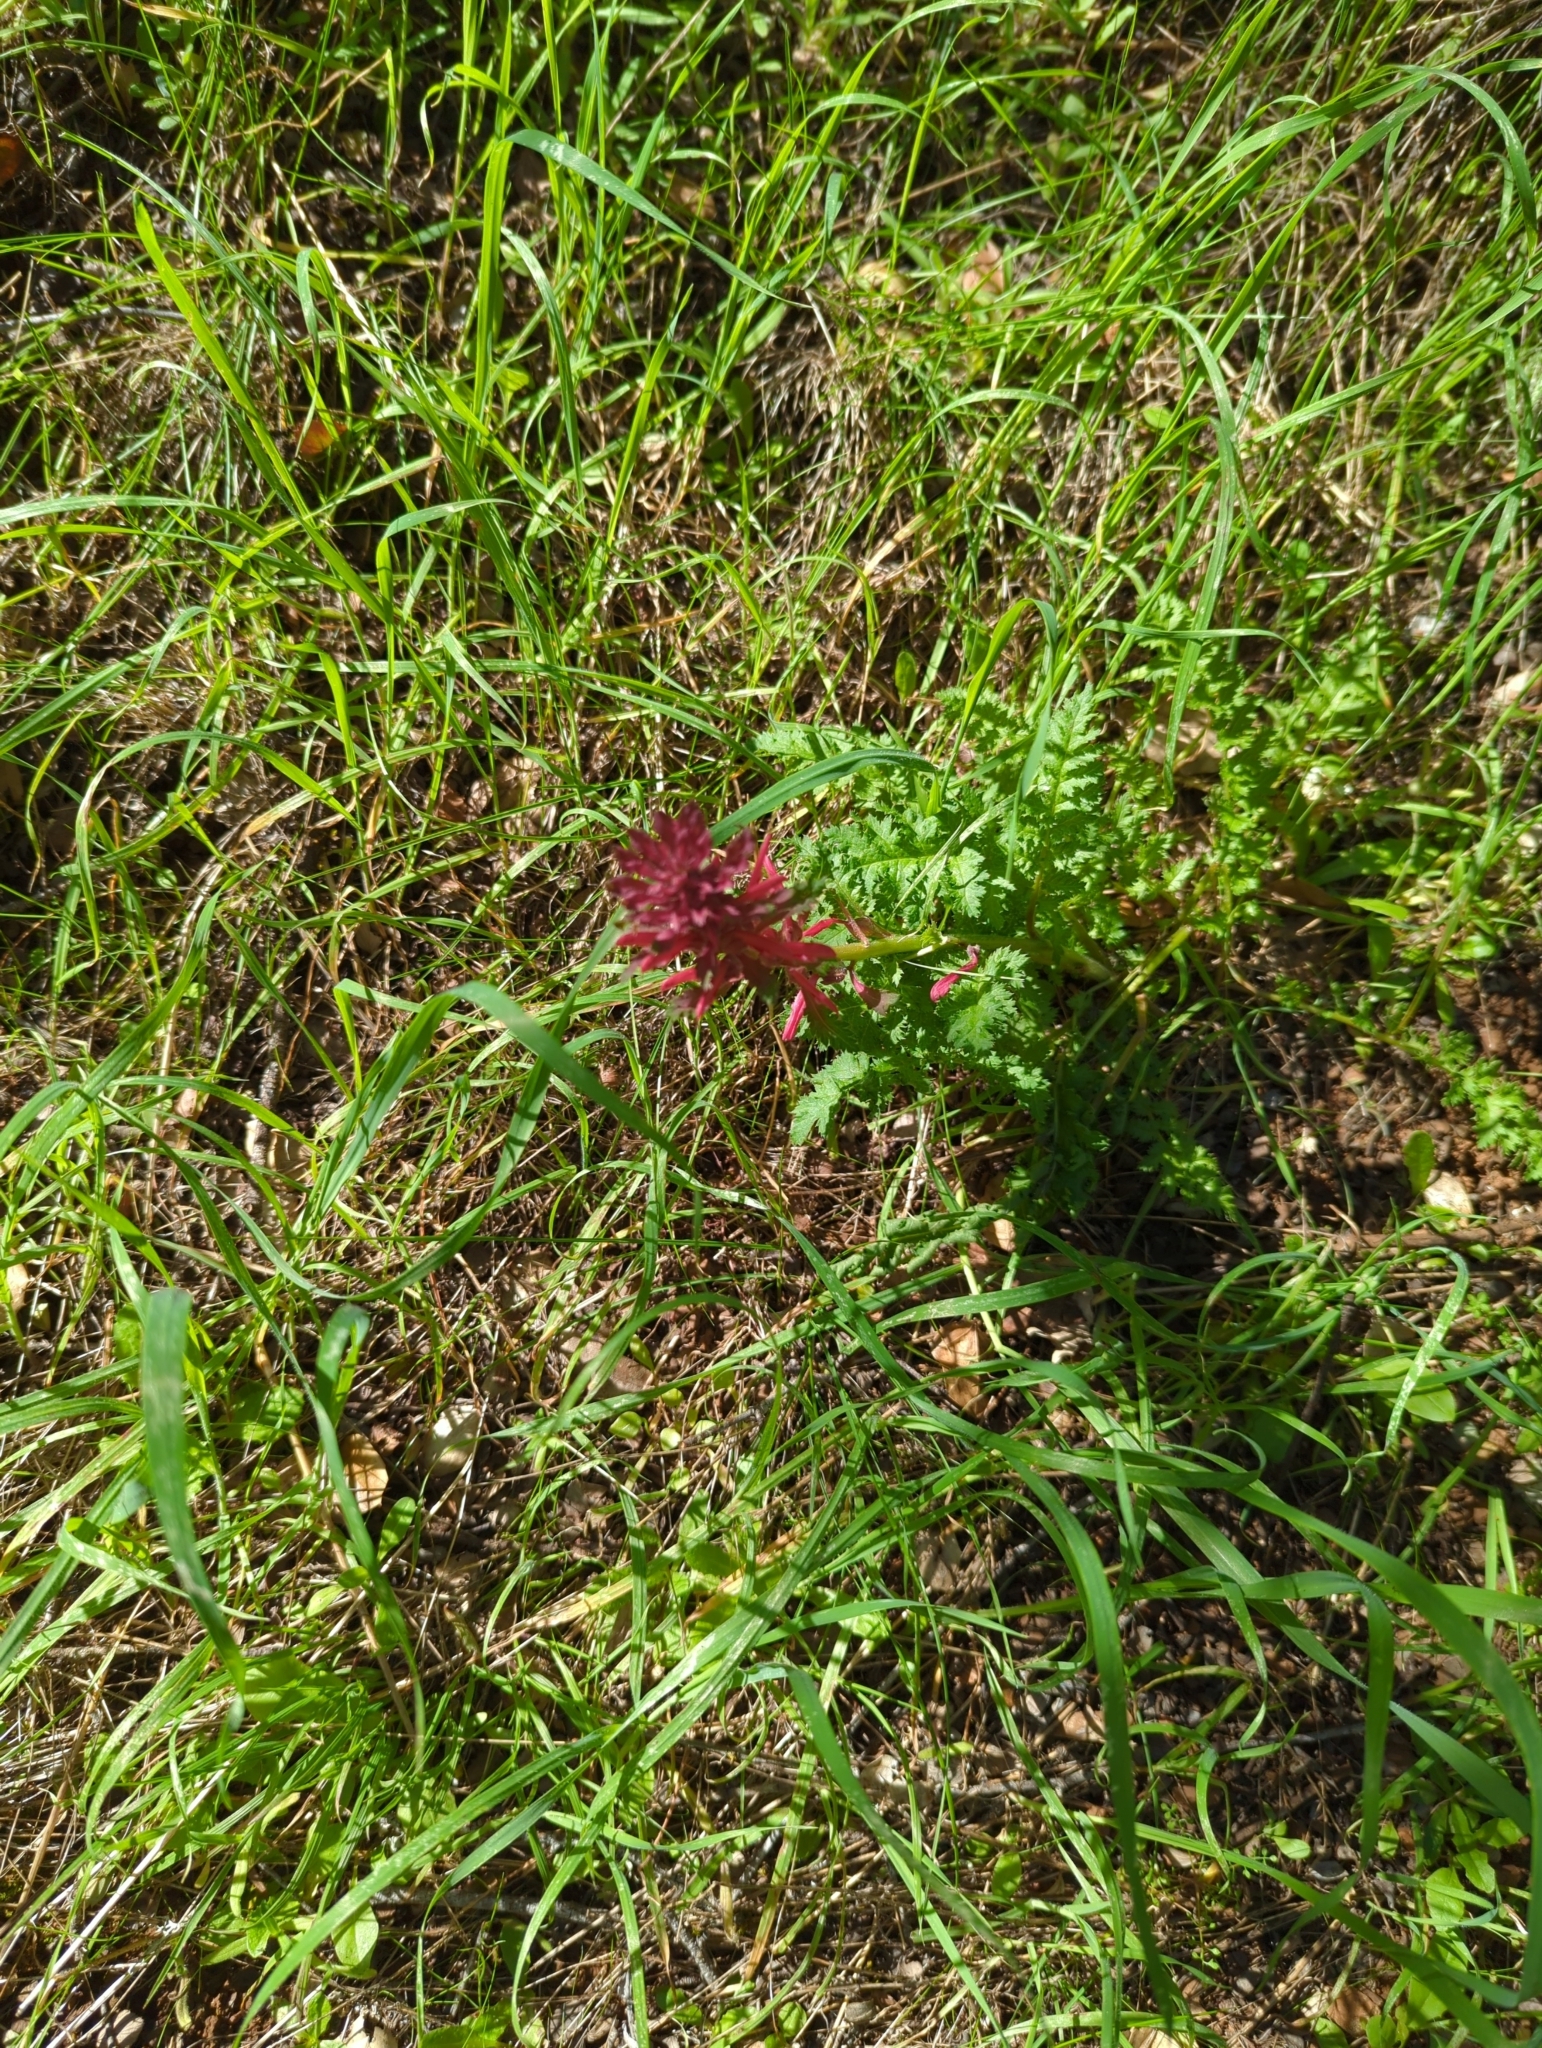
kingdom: Plantae
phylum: Tracheophyta
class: Magnoliopsida
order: Lamiales
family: Orobanchaceae
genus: Pedicularis
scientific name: Pedicularis densiflora
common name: Indian warrior
